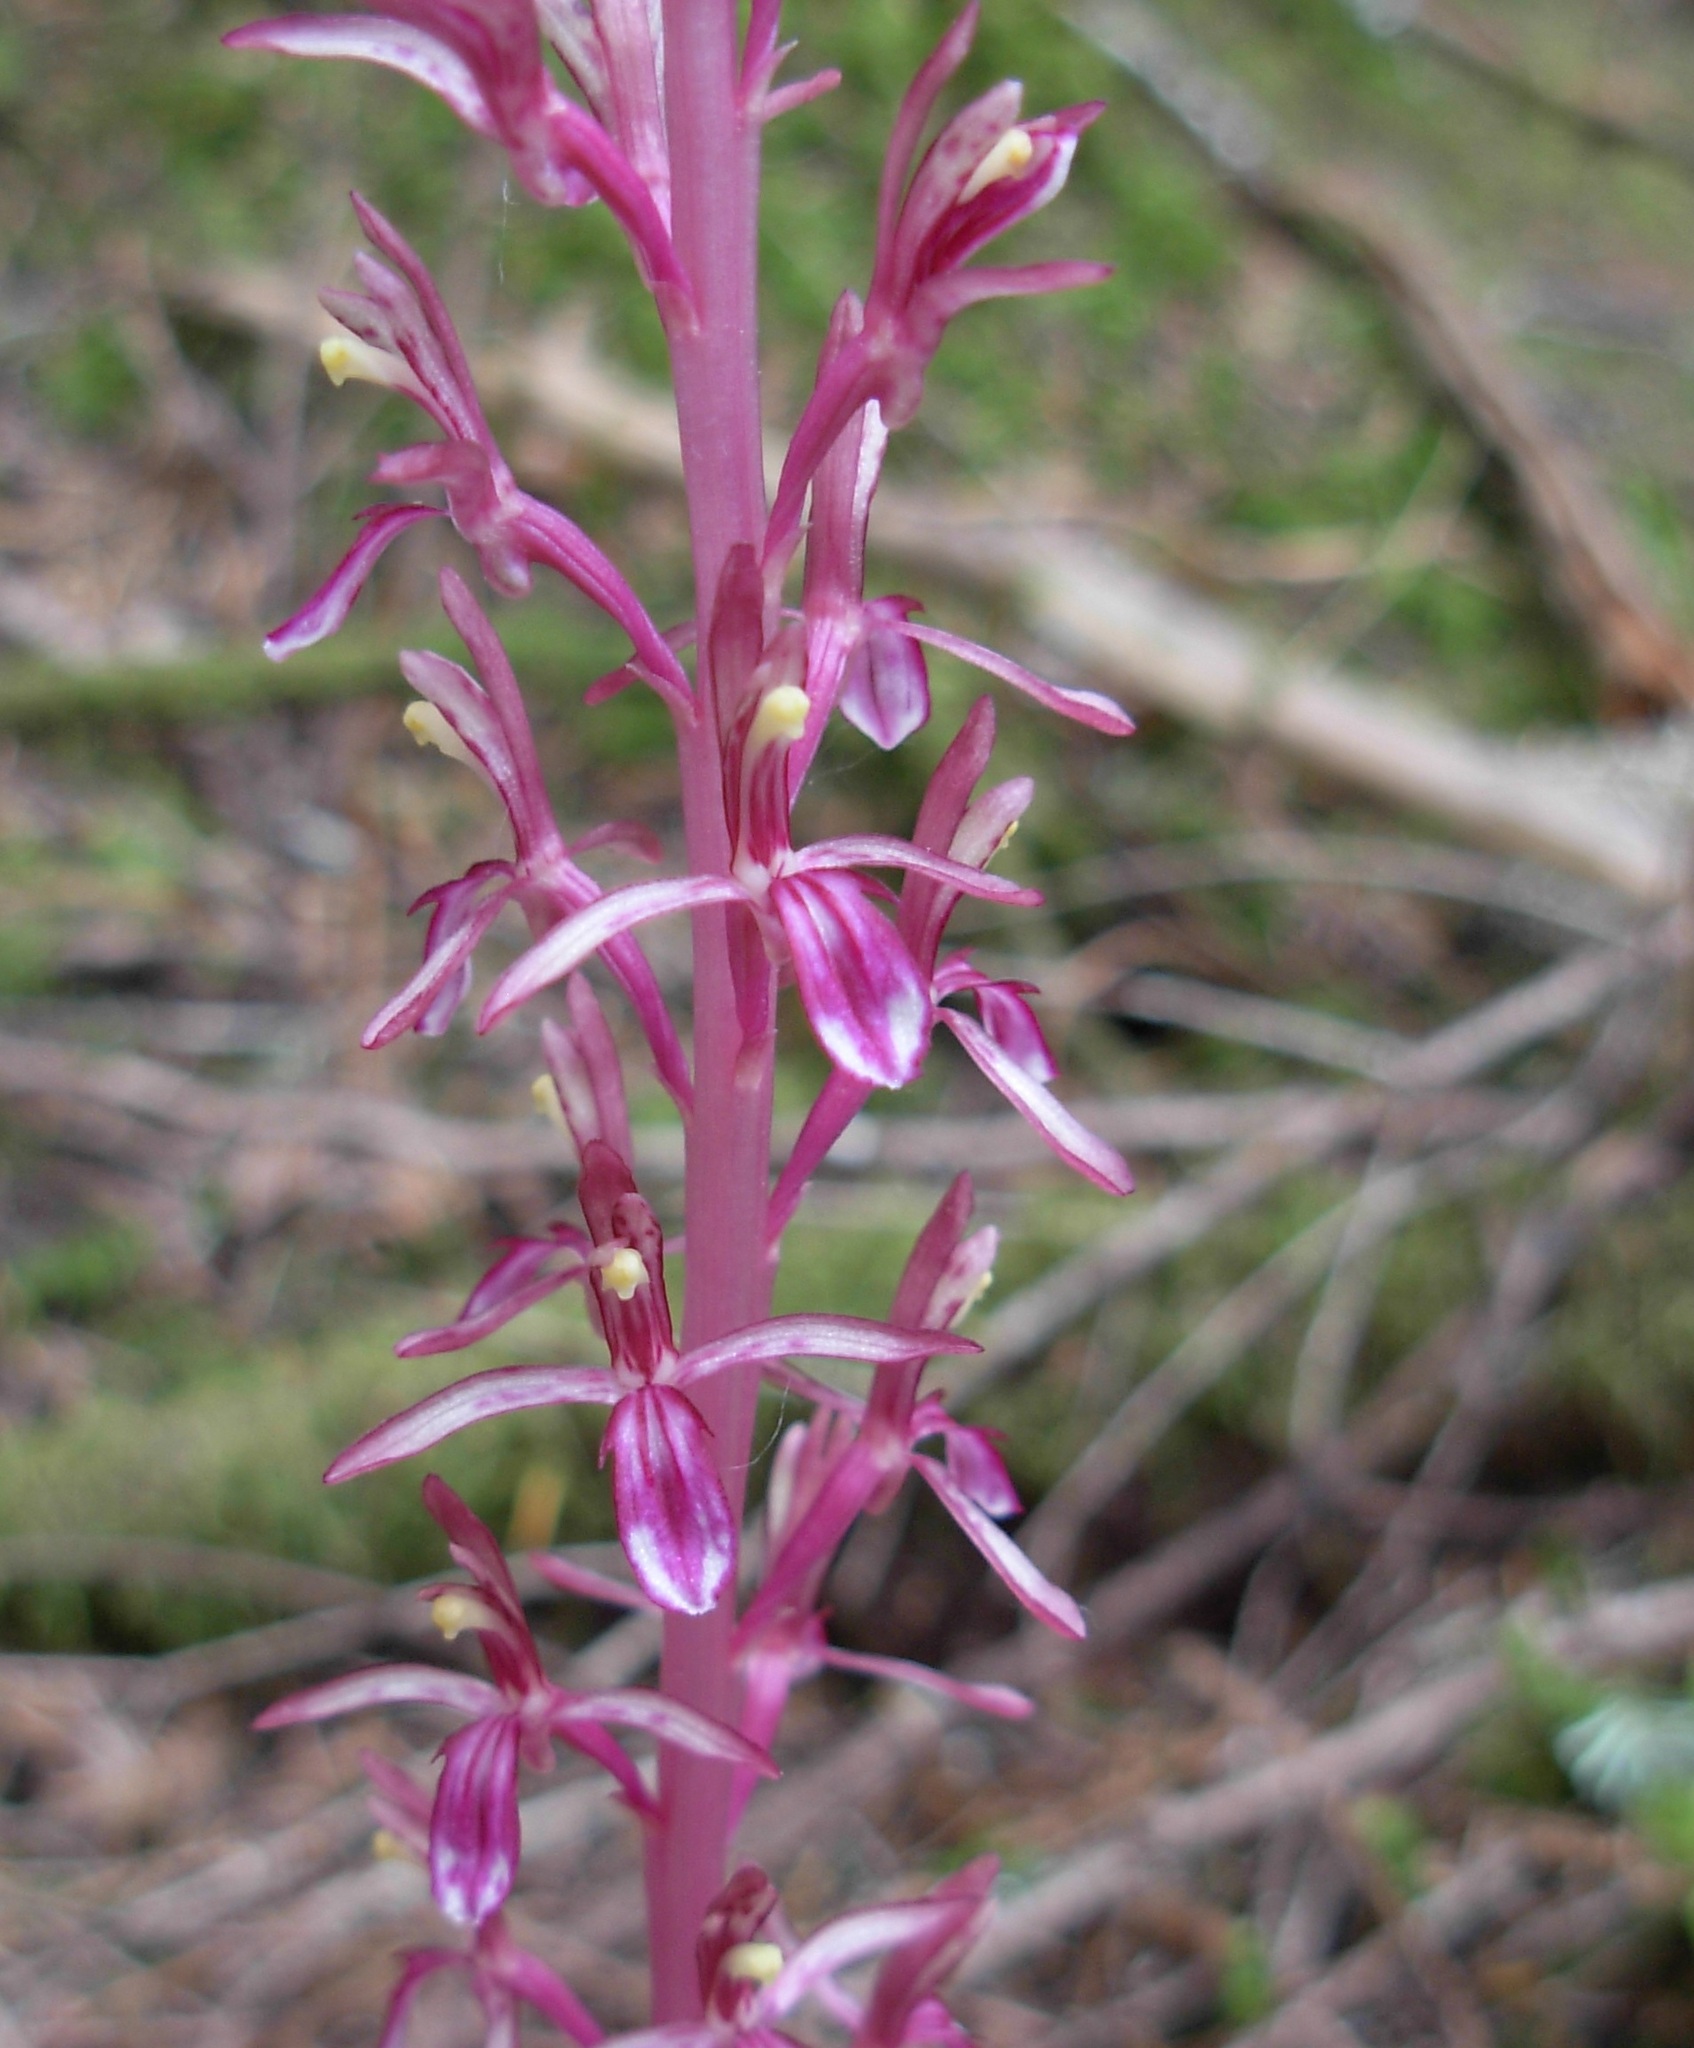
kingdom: Plantae
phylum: Tracheophyta
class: Liliopsida
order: Asparagales
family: Orchidaceae
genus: Corallorhiza
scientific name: Corallorhiza mertensiana
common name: Pacific coralroot
